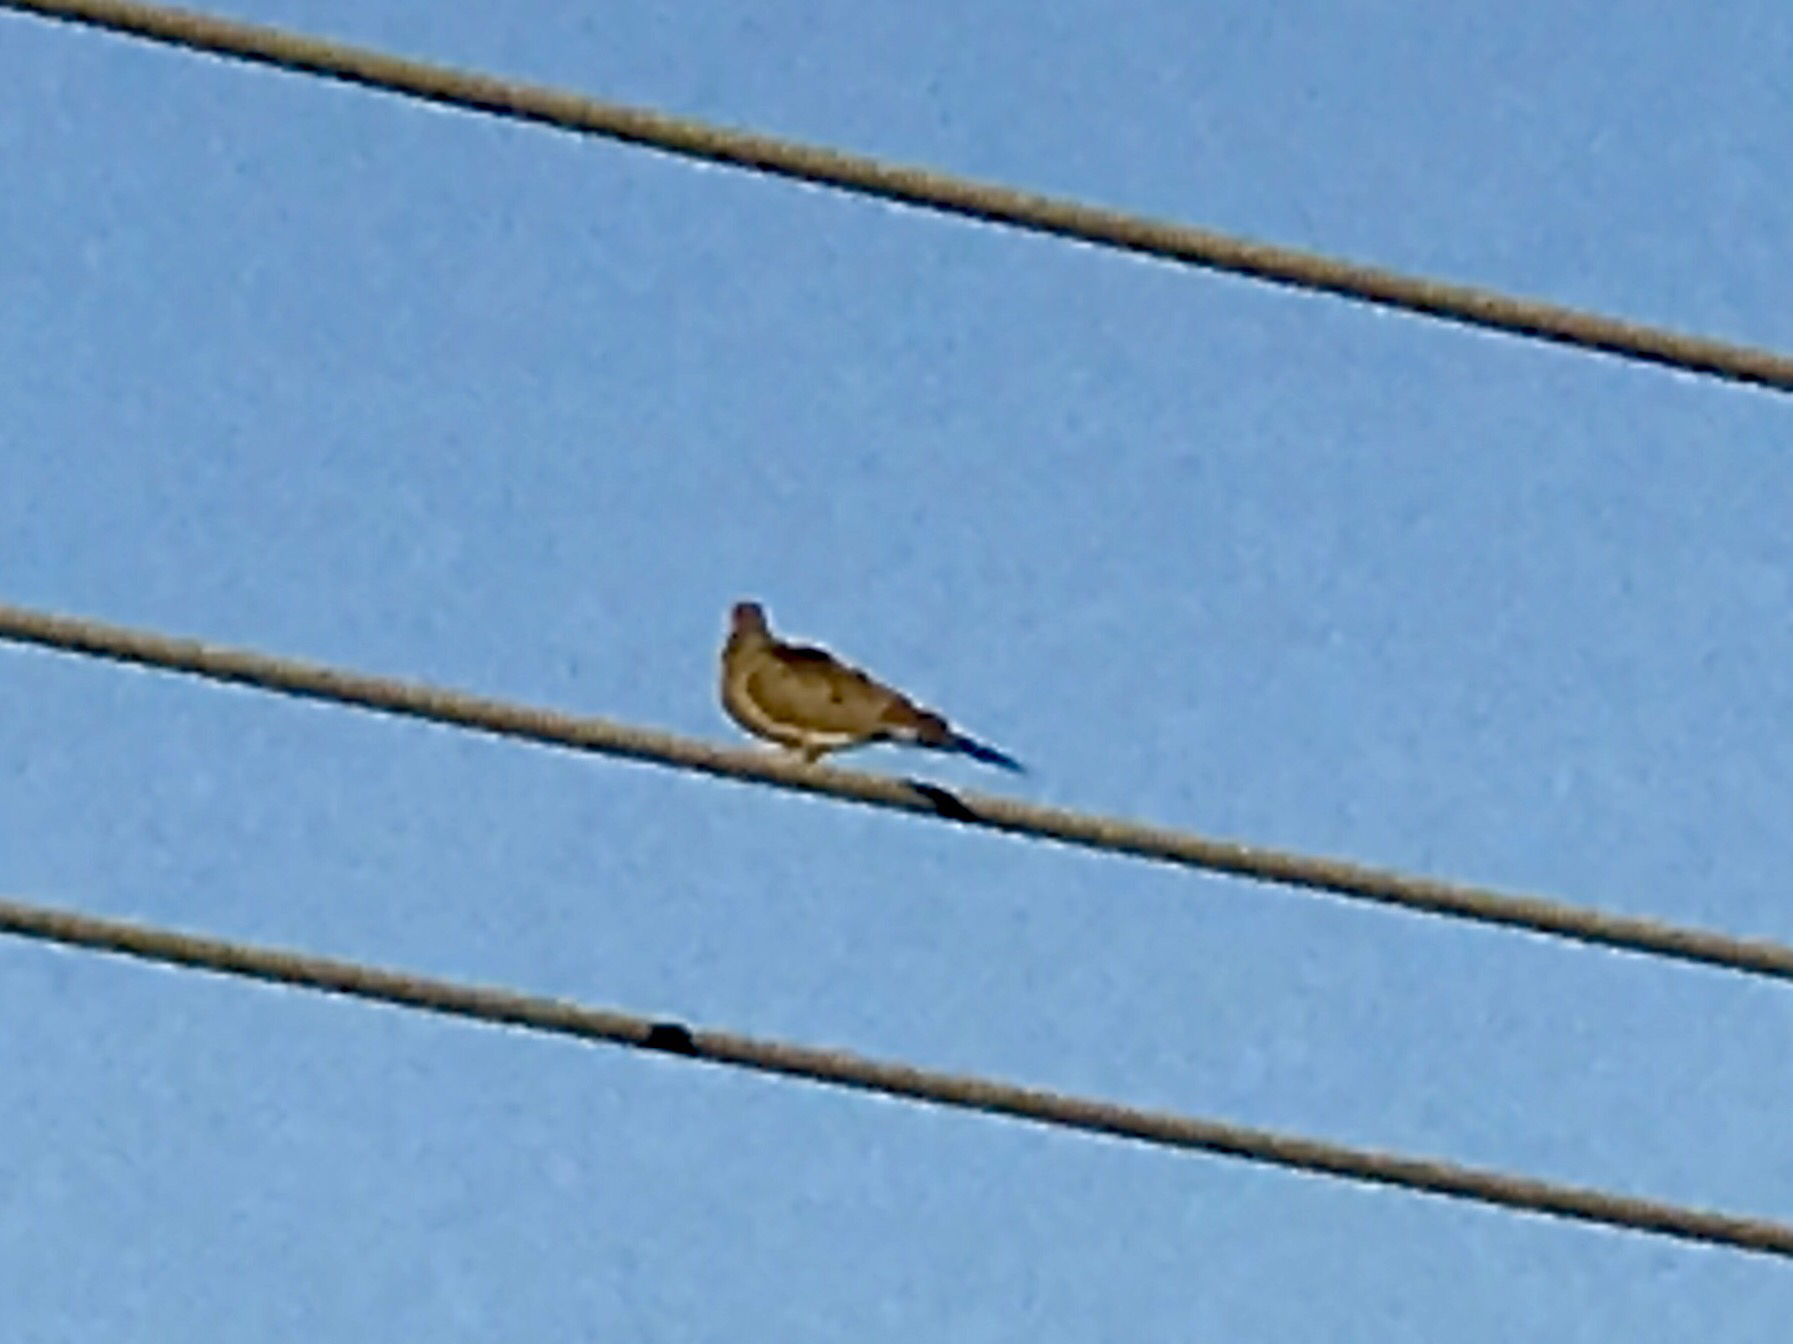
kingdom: Animalia
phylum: Chordata
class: Aves
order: Columbiformes
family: Columbidae
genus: Zenaida
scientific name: Zenaida macroura
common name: Mourning dove
